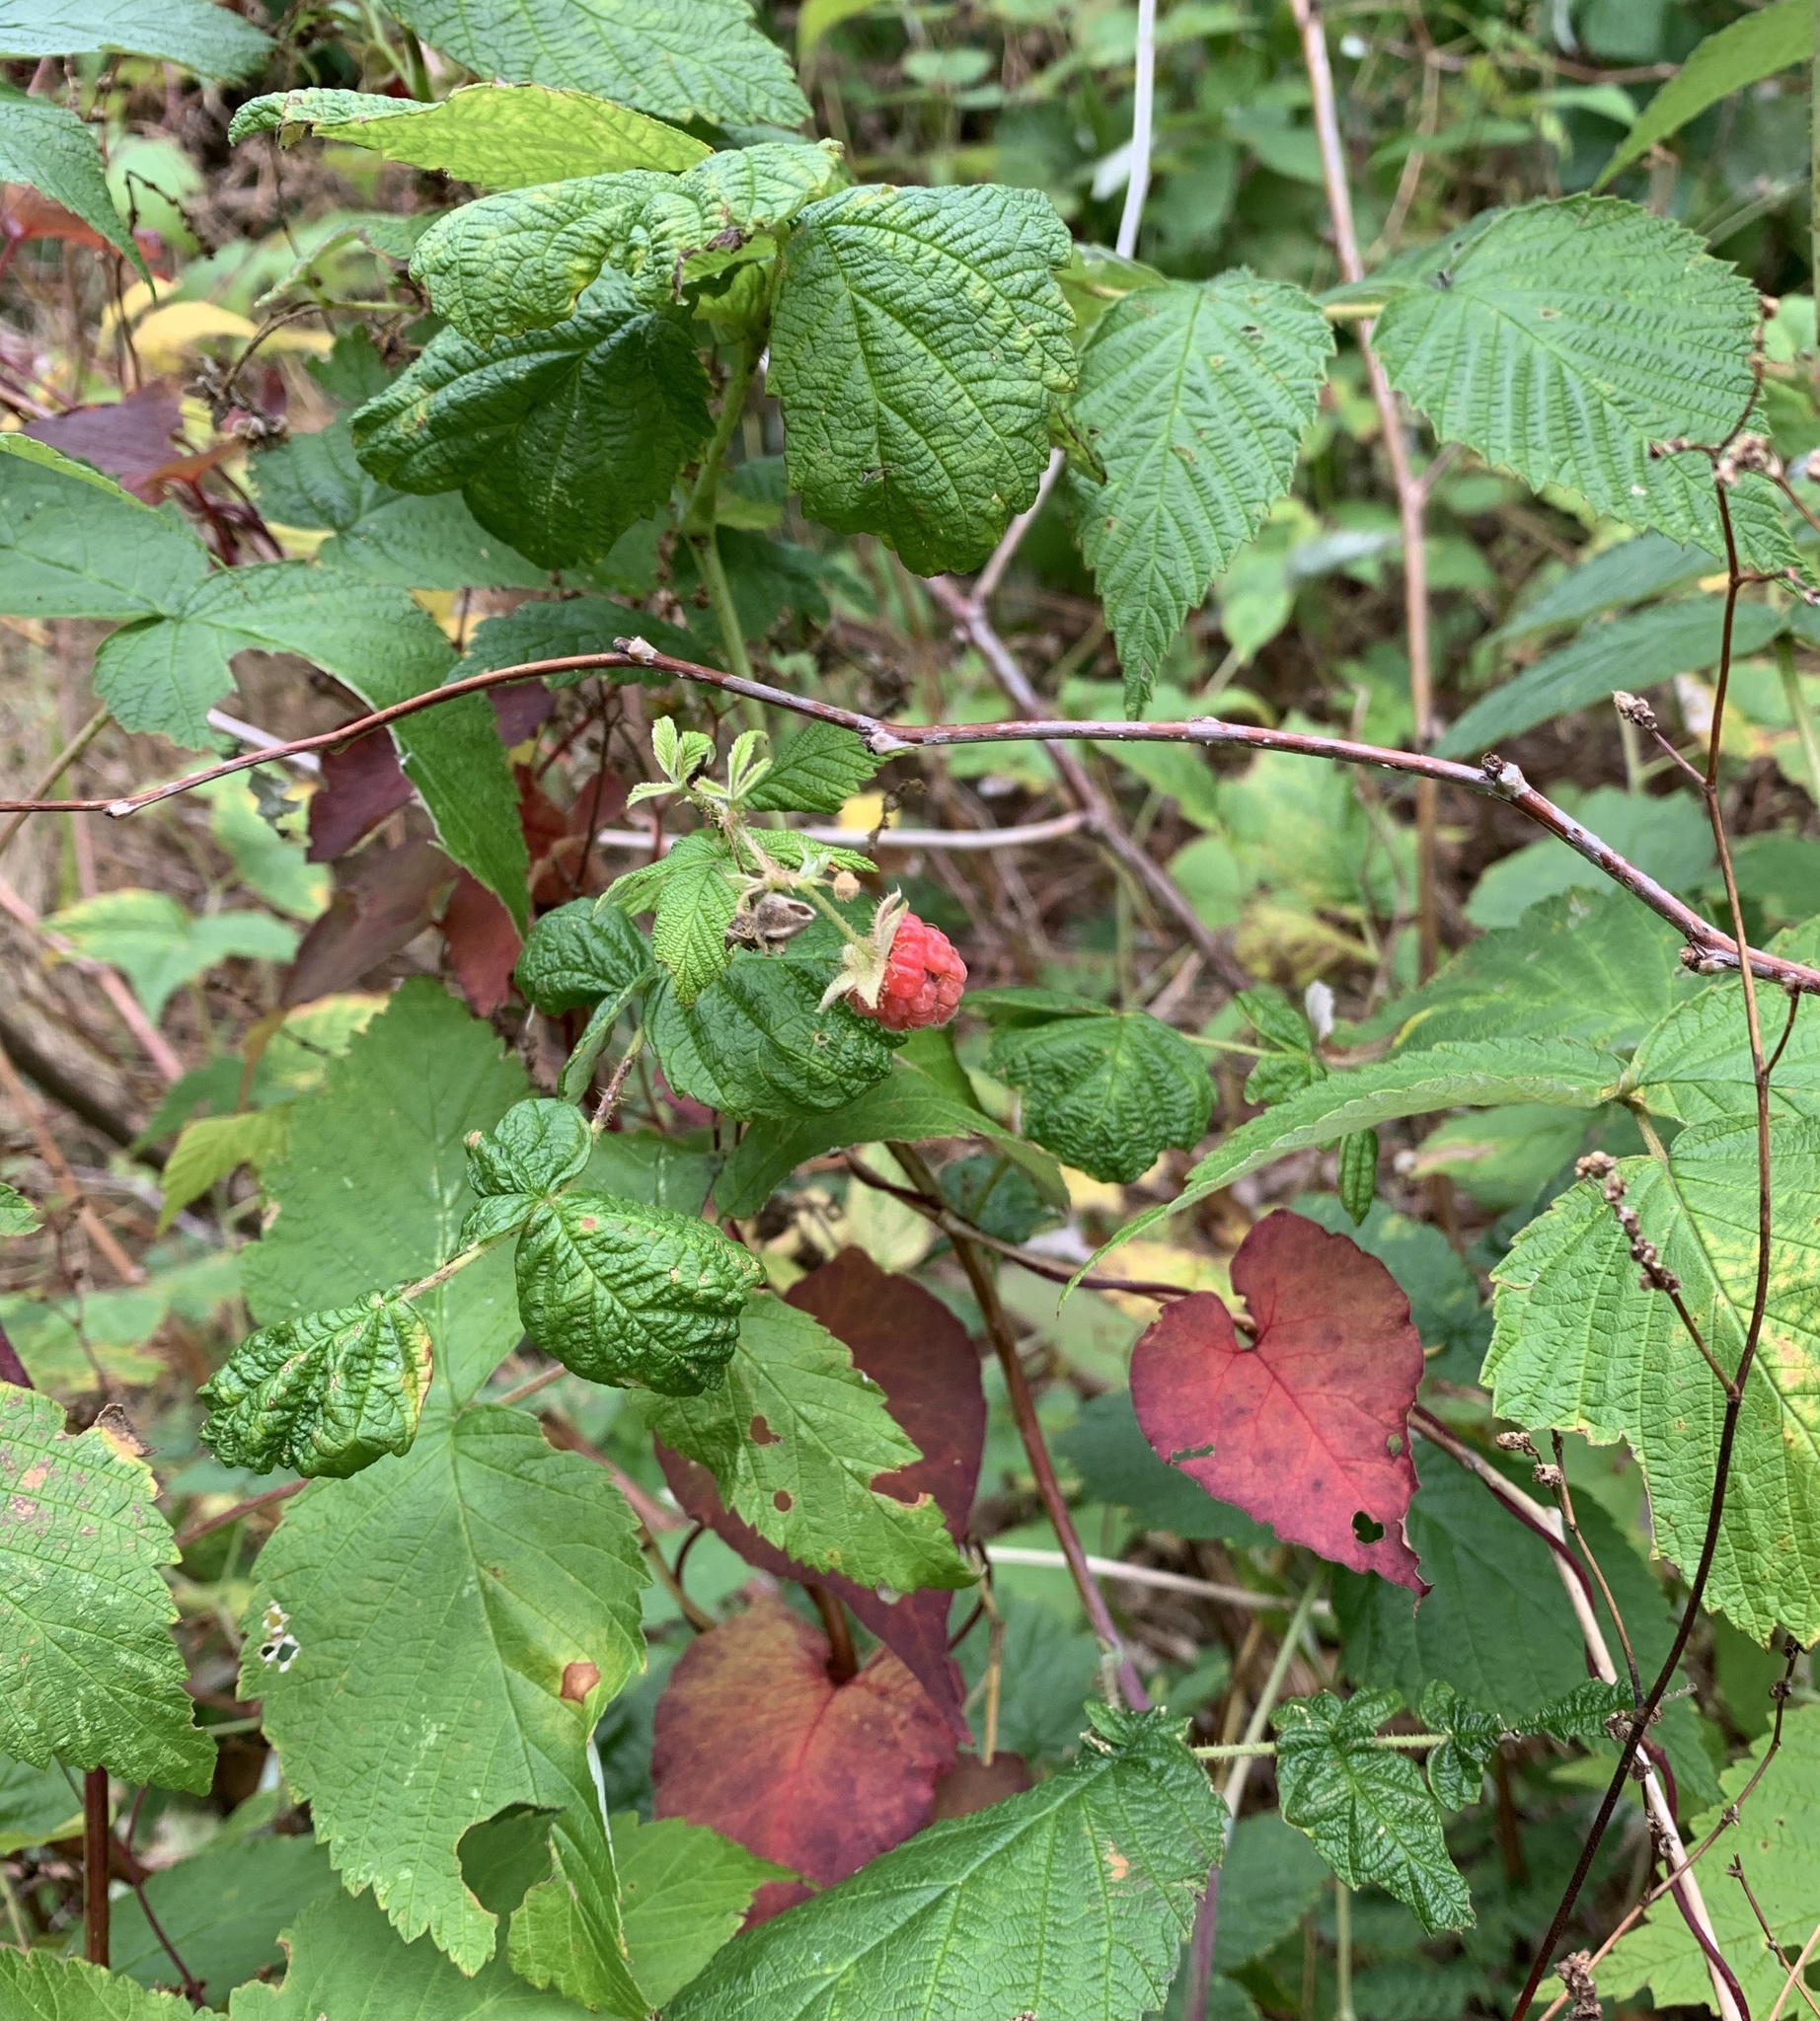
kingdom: Plantae
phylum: Tracheophyta
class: Magnoliopsida
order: Rosales
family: Rosaceae
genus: Rubus
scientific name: Rubus idaeus
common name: Raspberry
